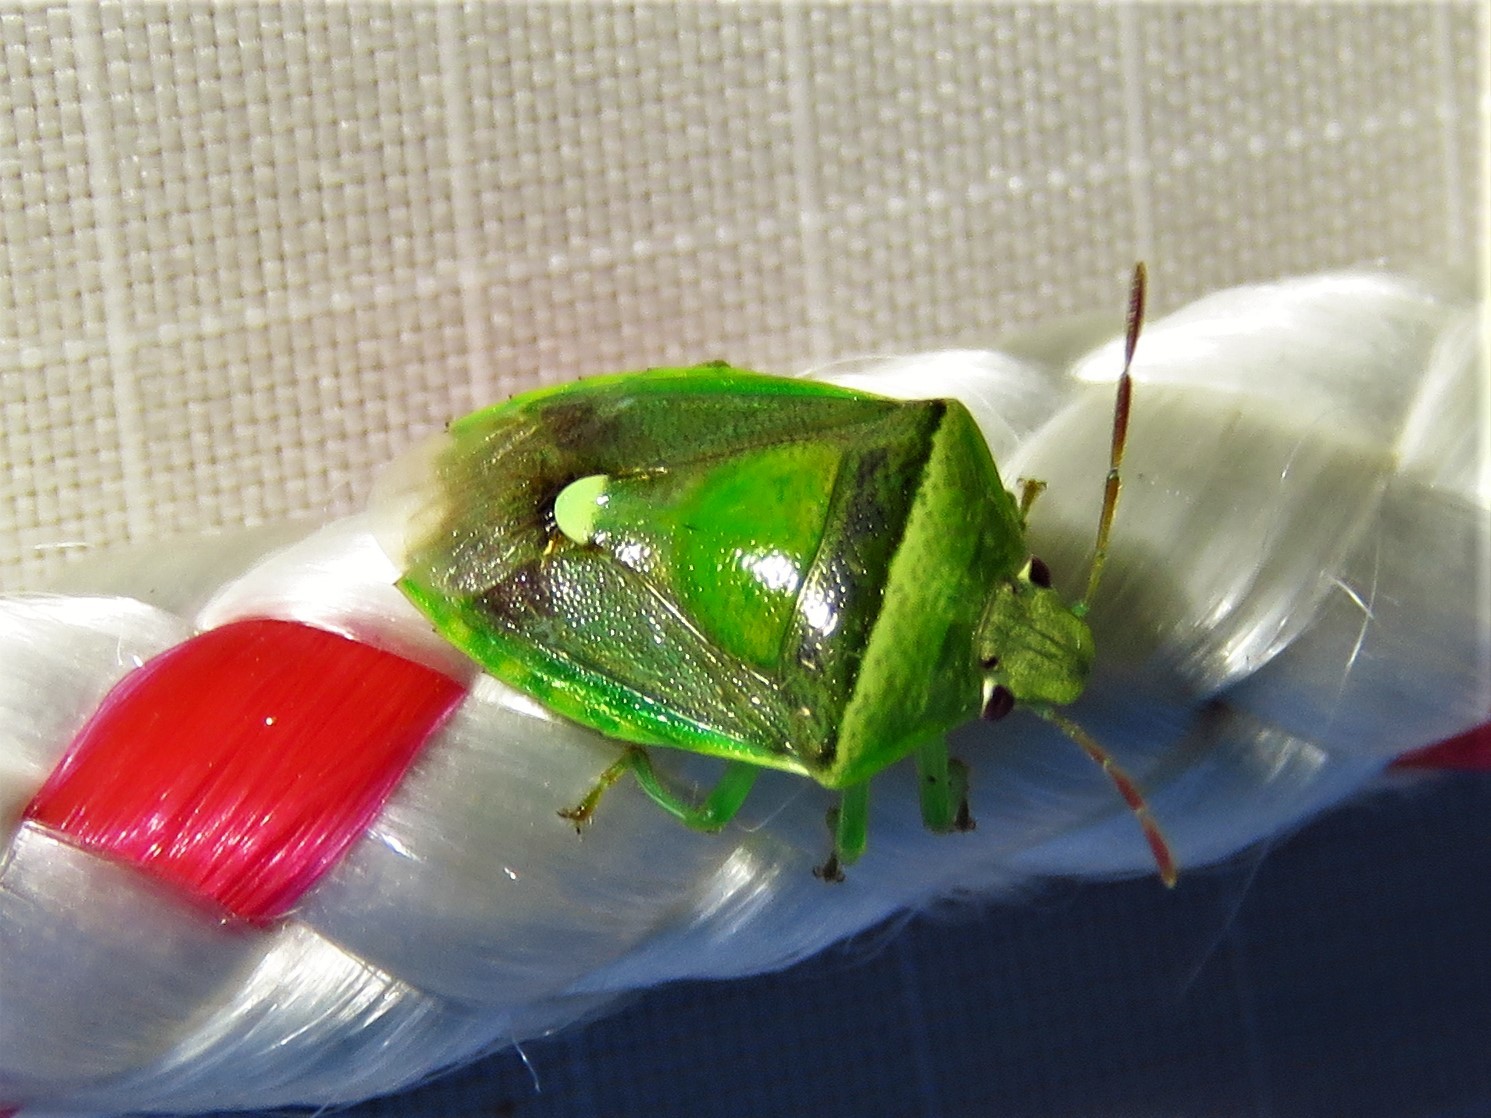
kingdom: Animalia
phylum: Arthropoda
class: Insecta
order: Hemiptera
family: Pentatomidae
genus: Banasa
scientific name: Banasa dimidiata
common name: Green burgundy stink bug
